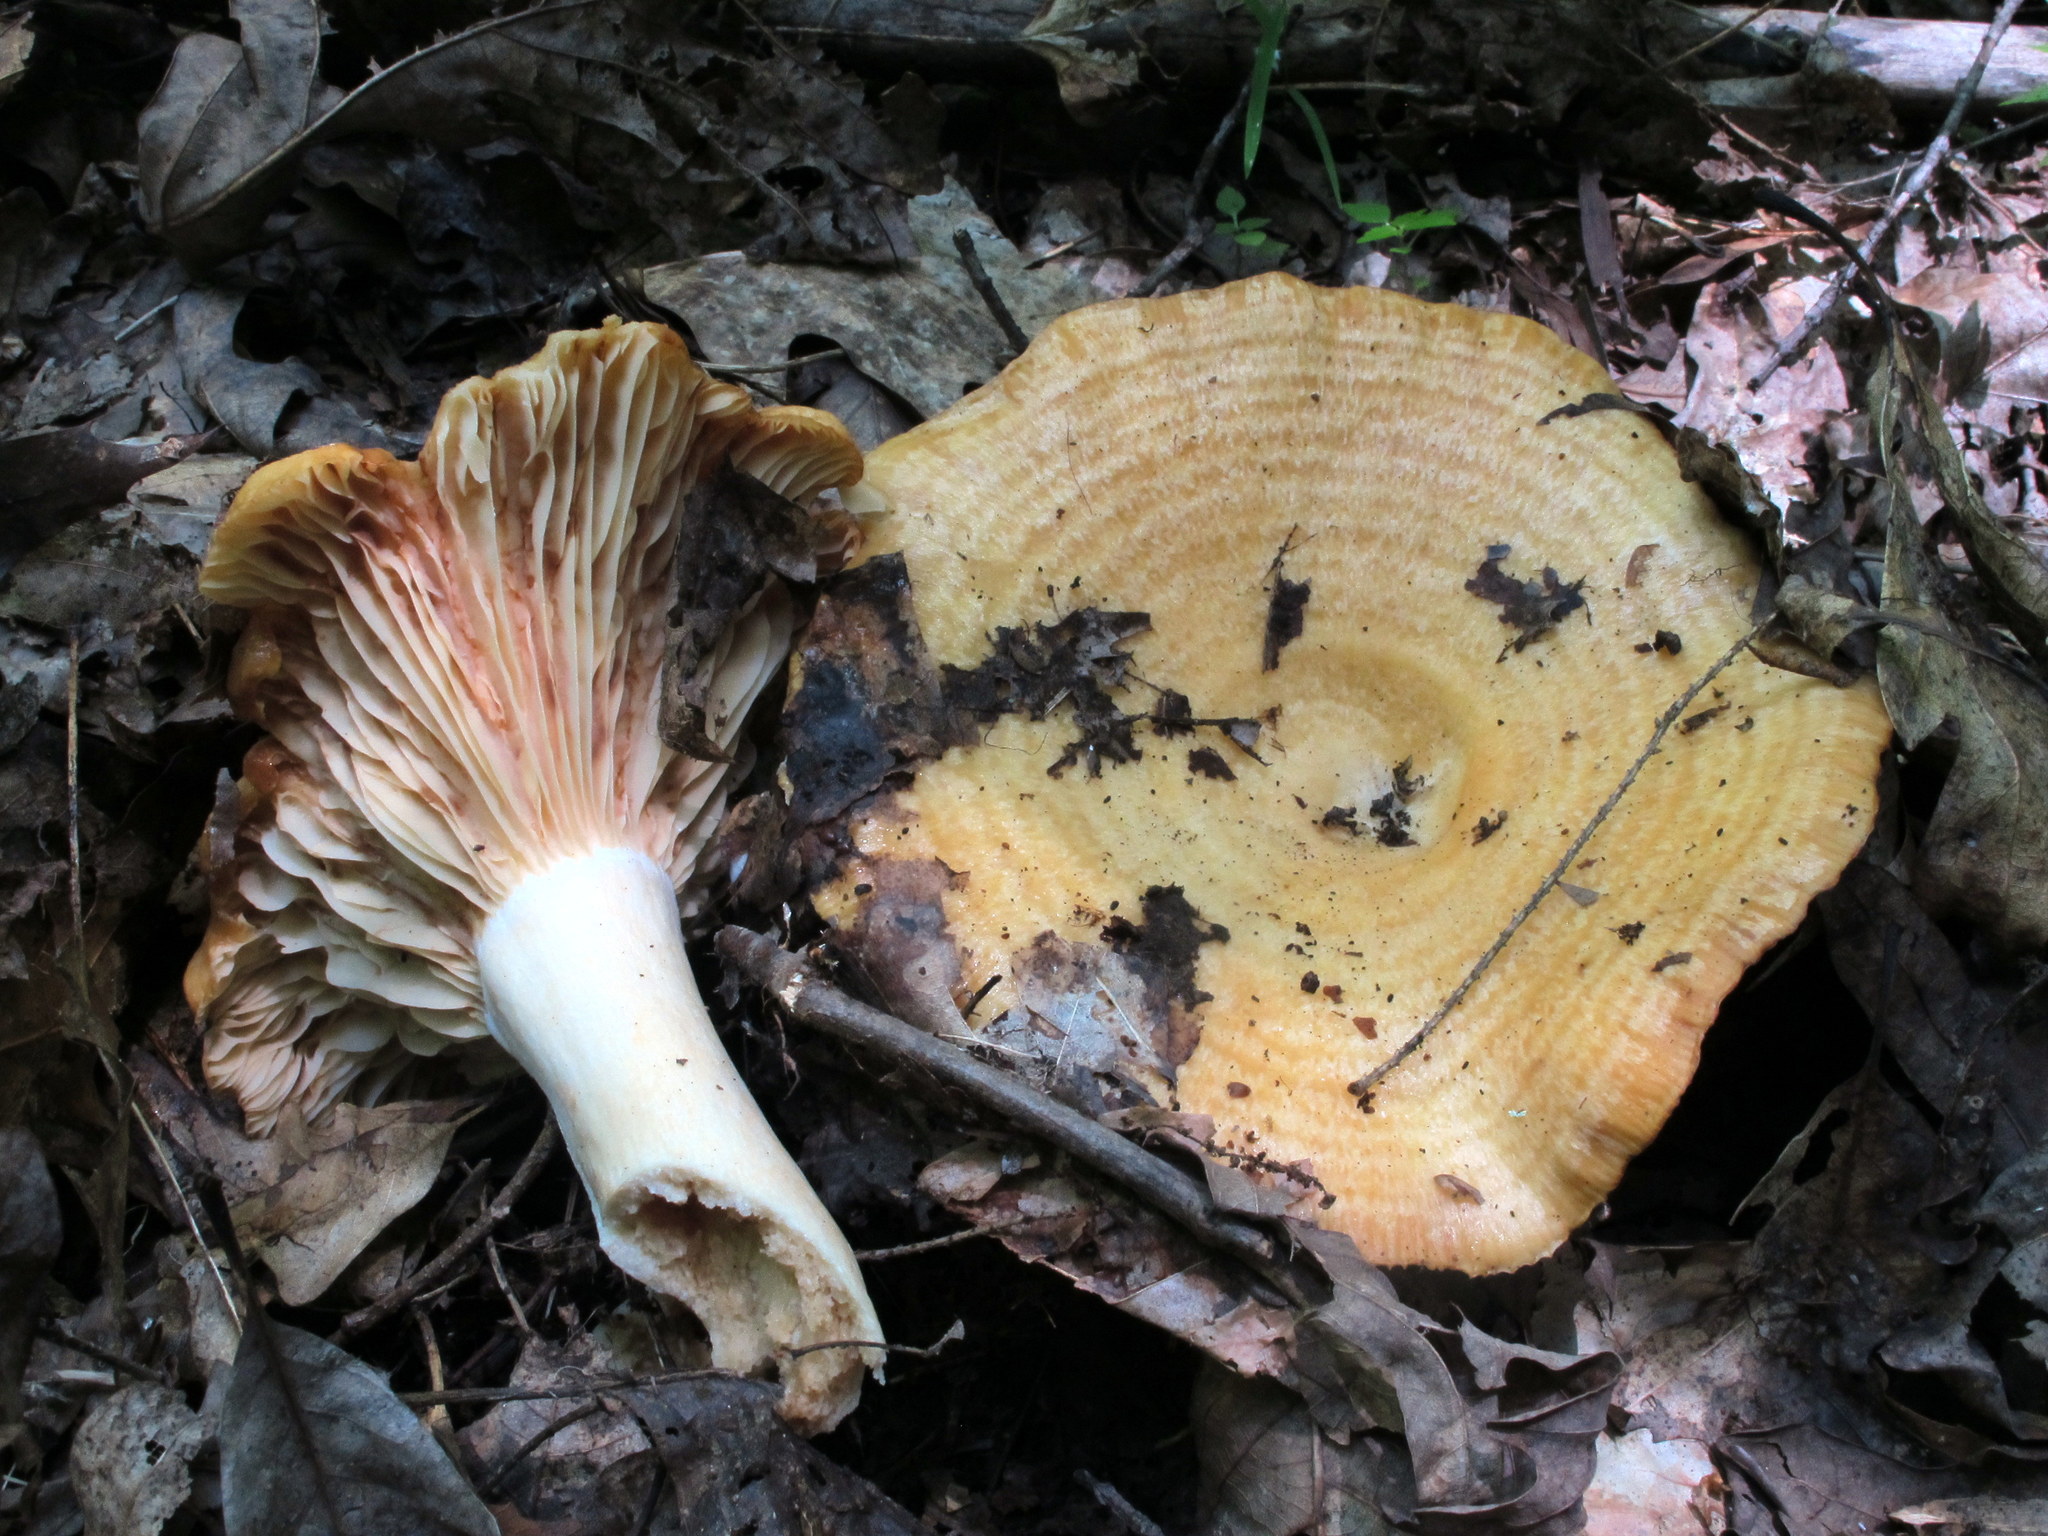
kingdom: Fungi
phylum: Basidiomycota
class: Agaricomycetes
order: Russulales
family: Russulaceae
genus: Lactarius
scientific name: Lactarius psammicola
